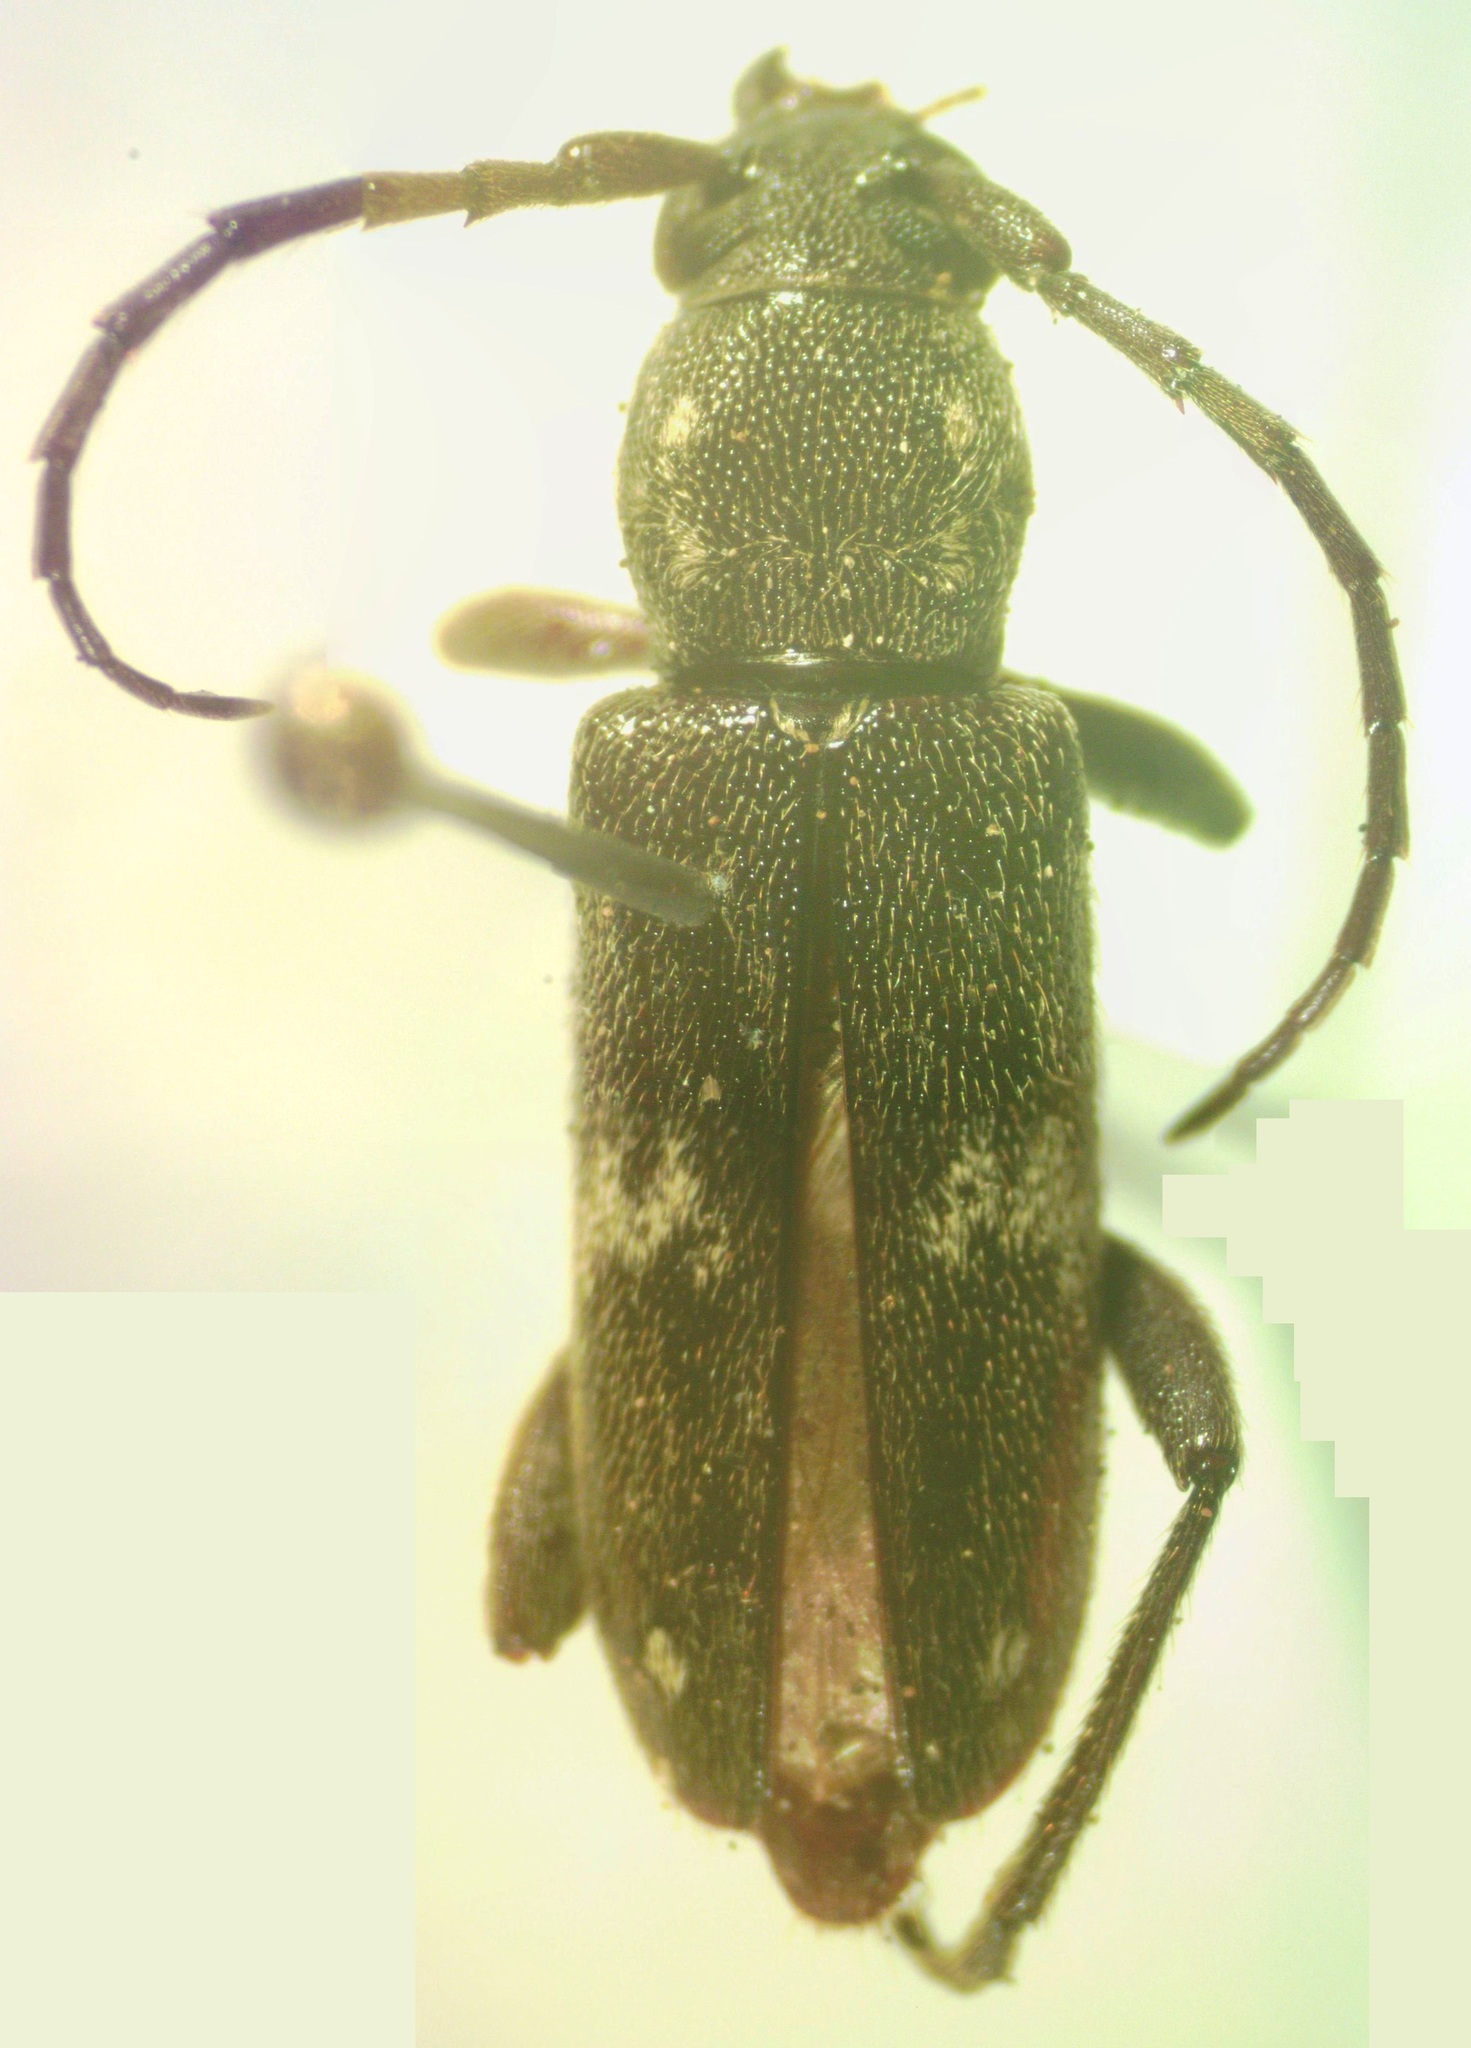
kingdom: Animalia
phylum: Arthropoda
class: Insecta
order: Coleoptera
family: Cerambycidae
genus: Anelaphus
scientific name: Anelaphus undulatum
